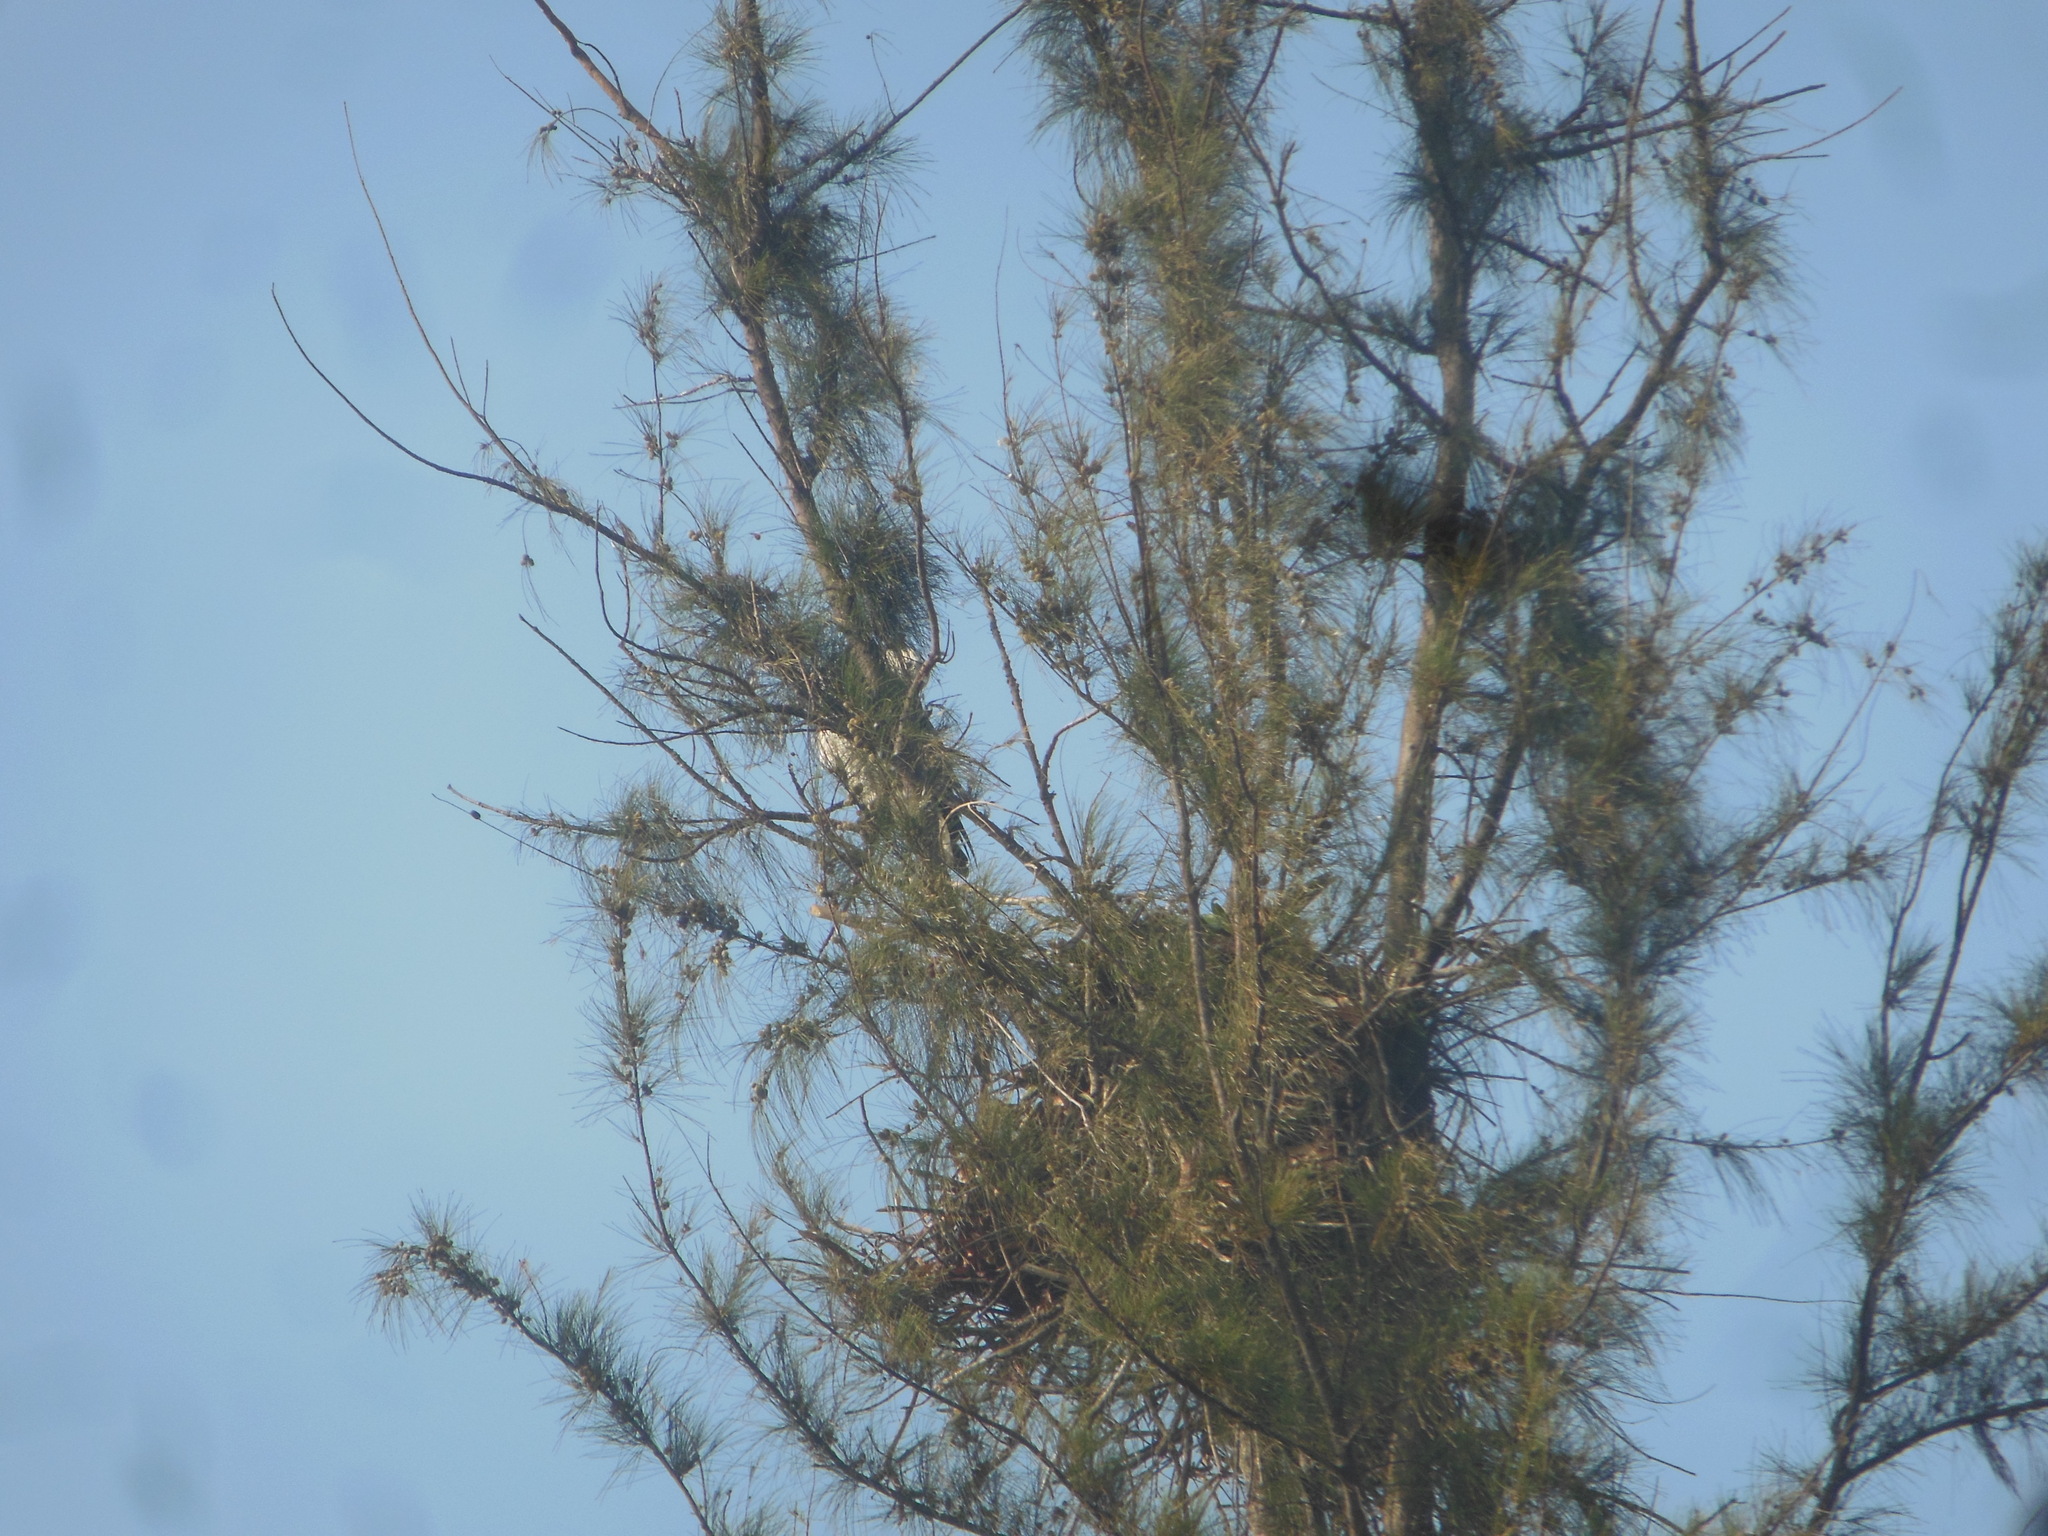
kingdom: Animalia
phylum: Chordata
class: Aves
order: Accipitriformes
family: Accipitridae
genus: Haliaeetus
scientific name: Haliaeetus leucogaster
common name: White-bellied sea eagle
